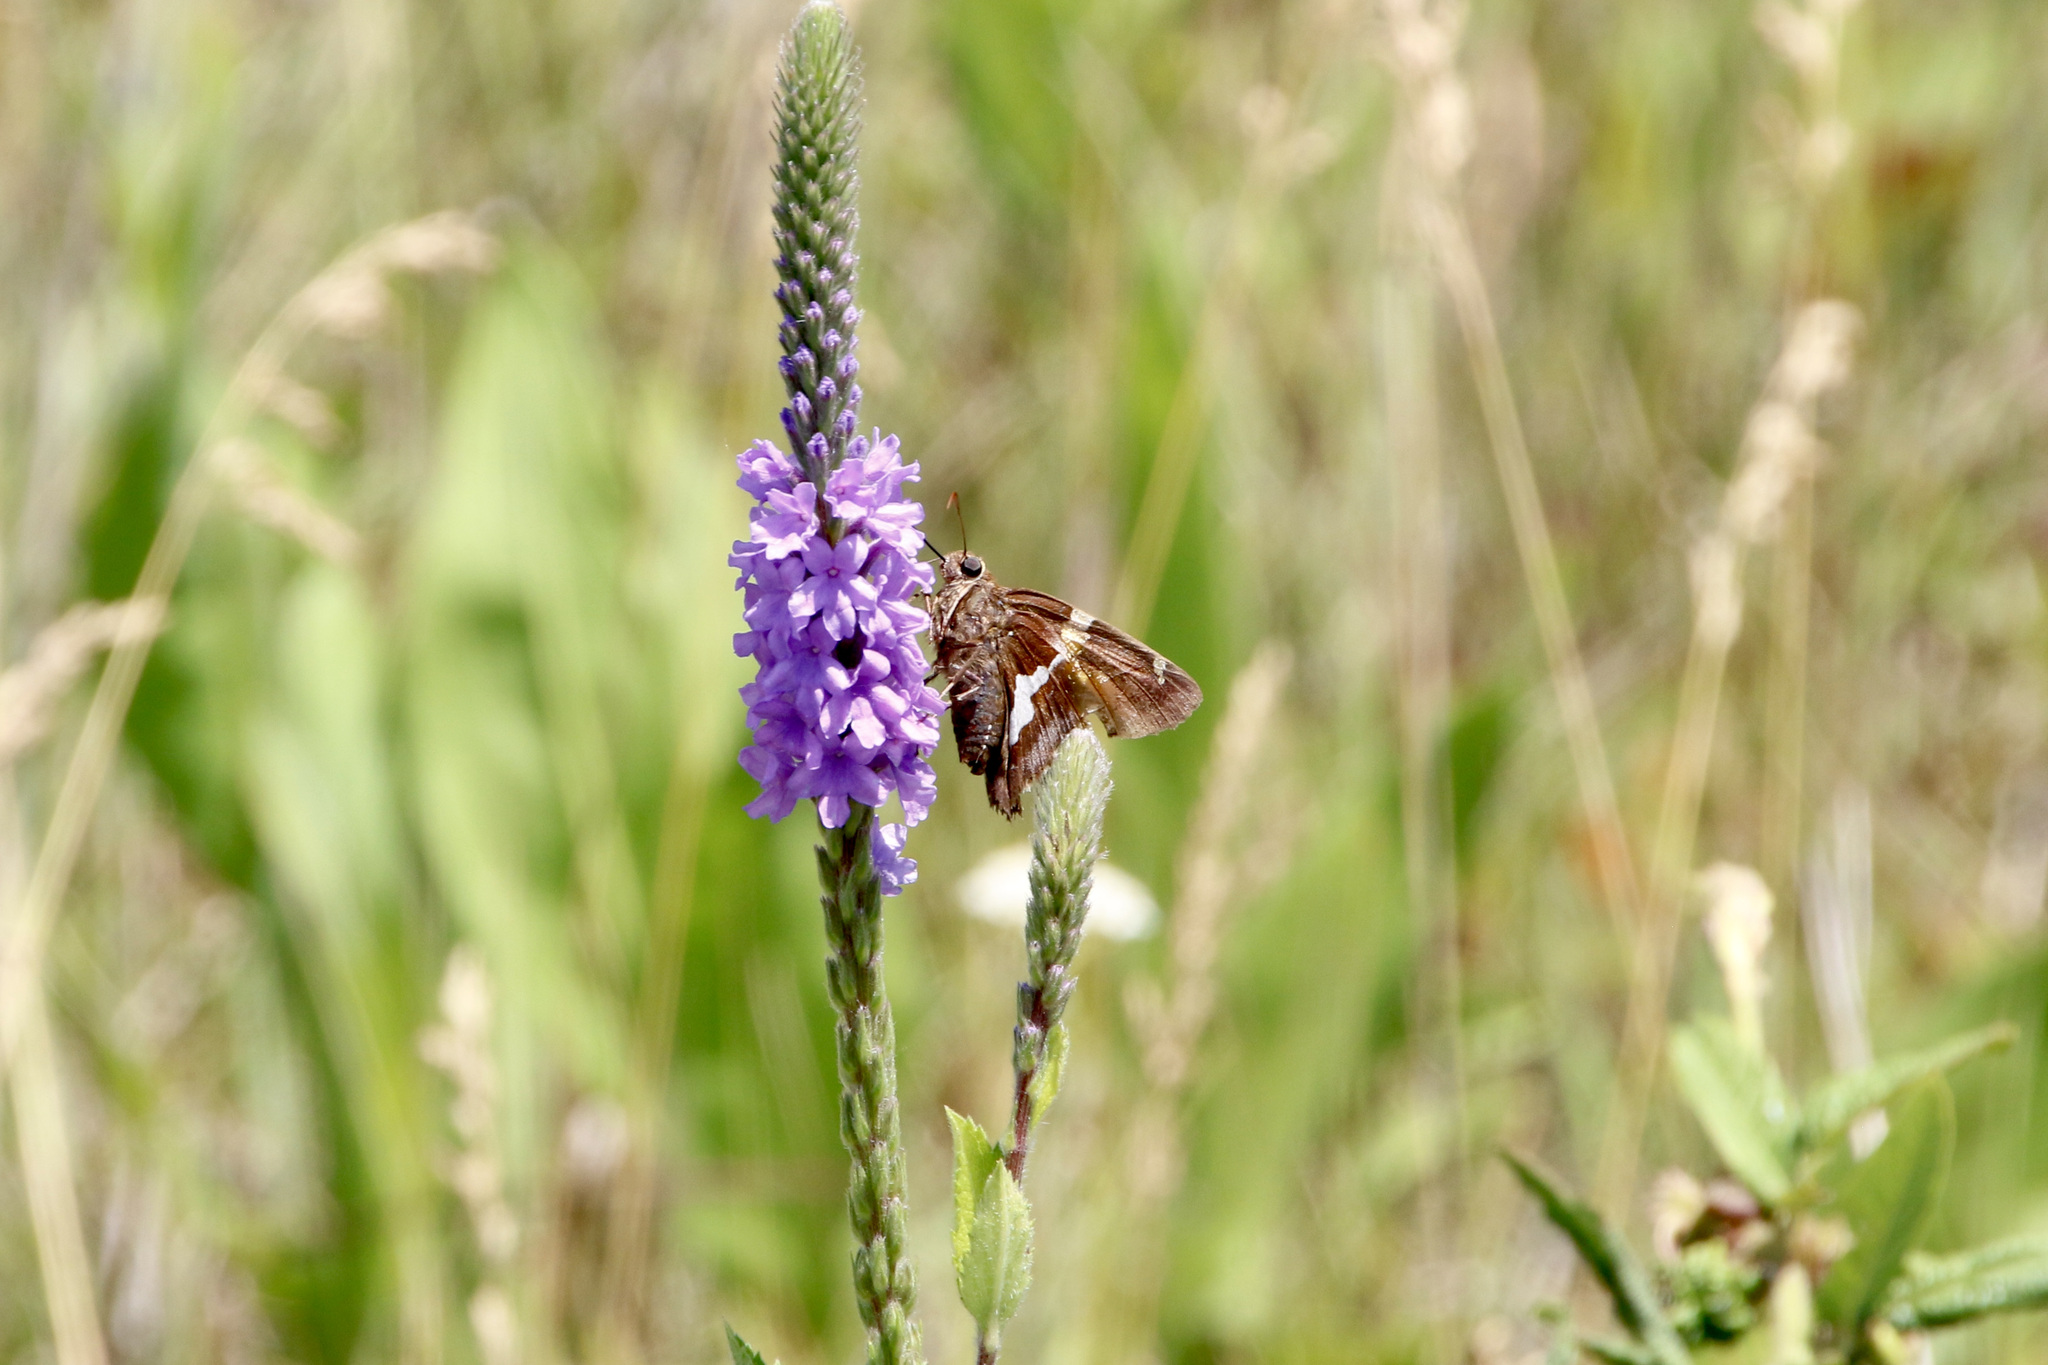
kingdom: Animalia
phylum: Arthropoda
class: Insecta
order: Lepidoptera
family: Hesperiidae
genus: Epargyreus
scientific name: Epargyreus clarus
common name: Silver-spotted skipper
